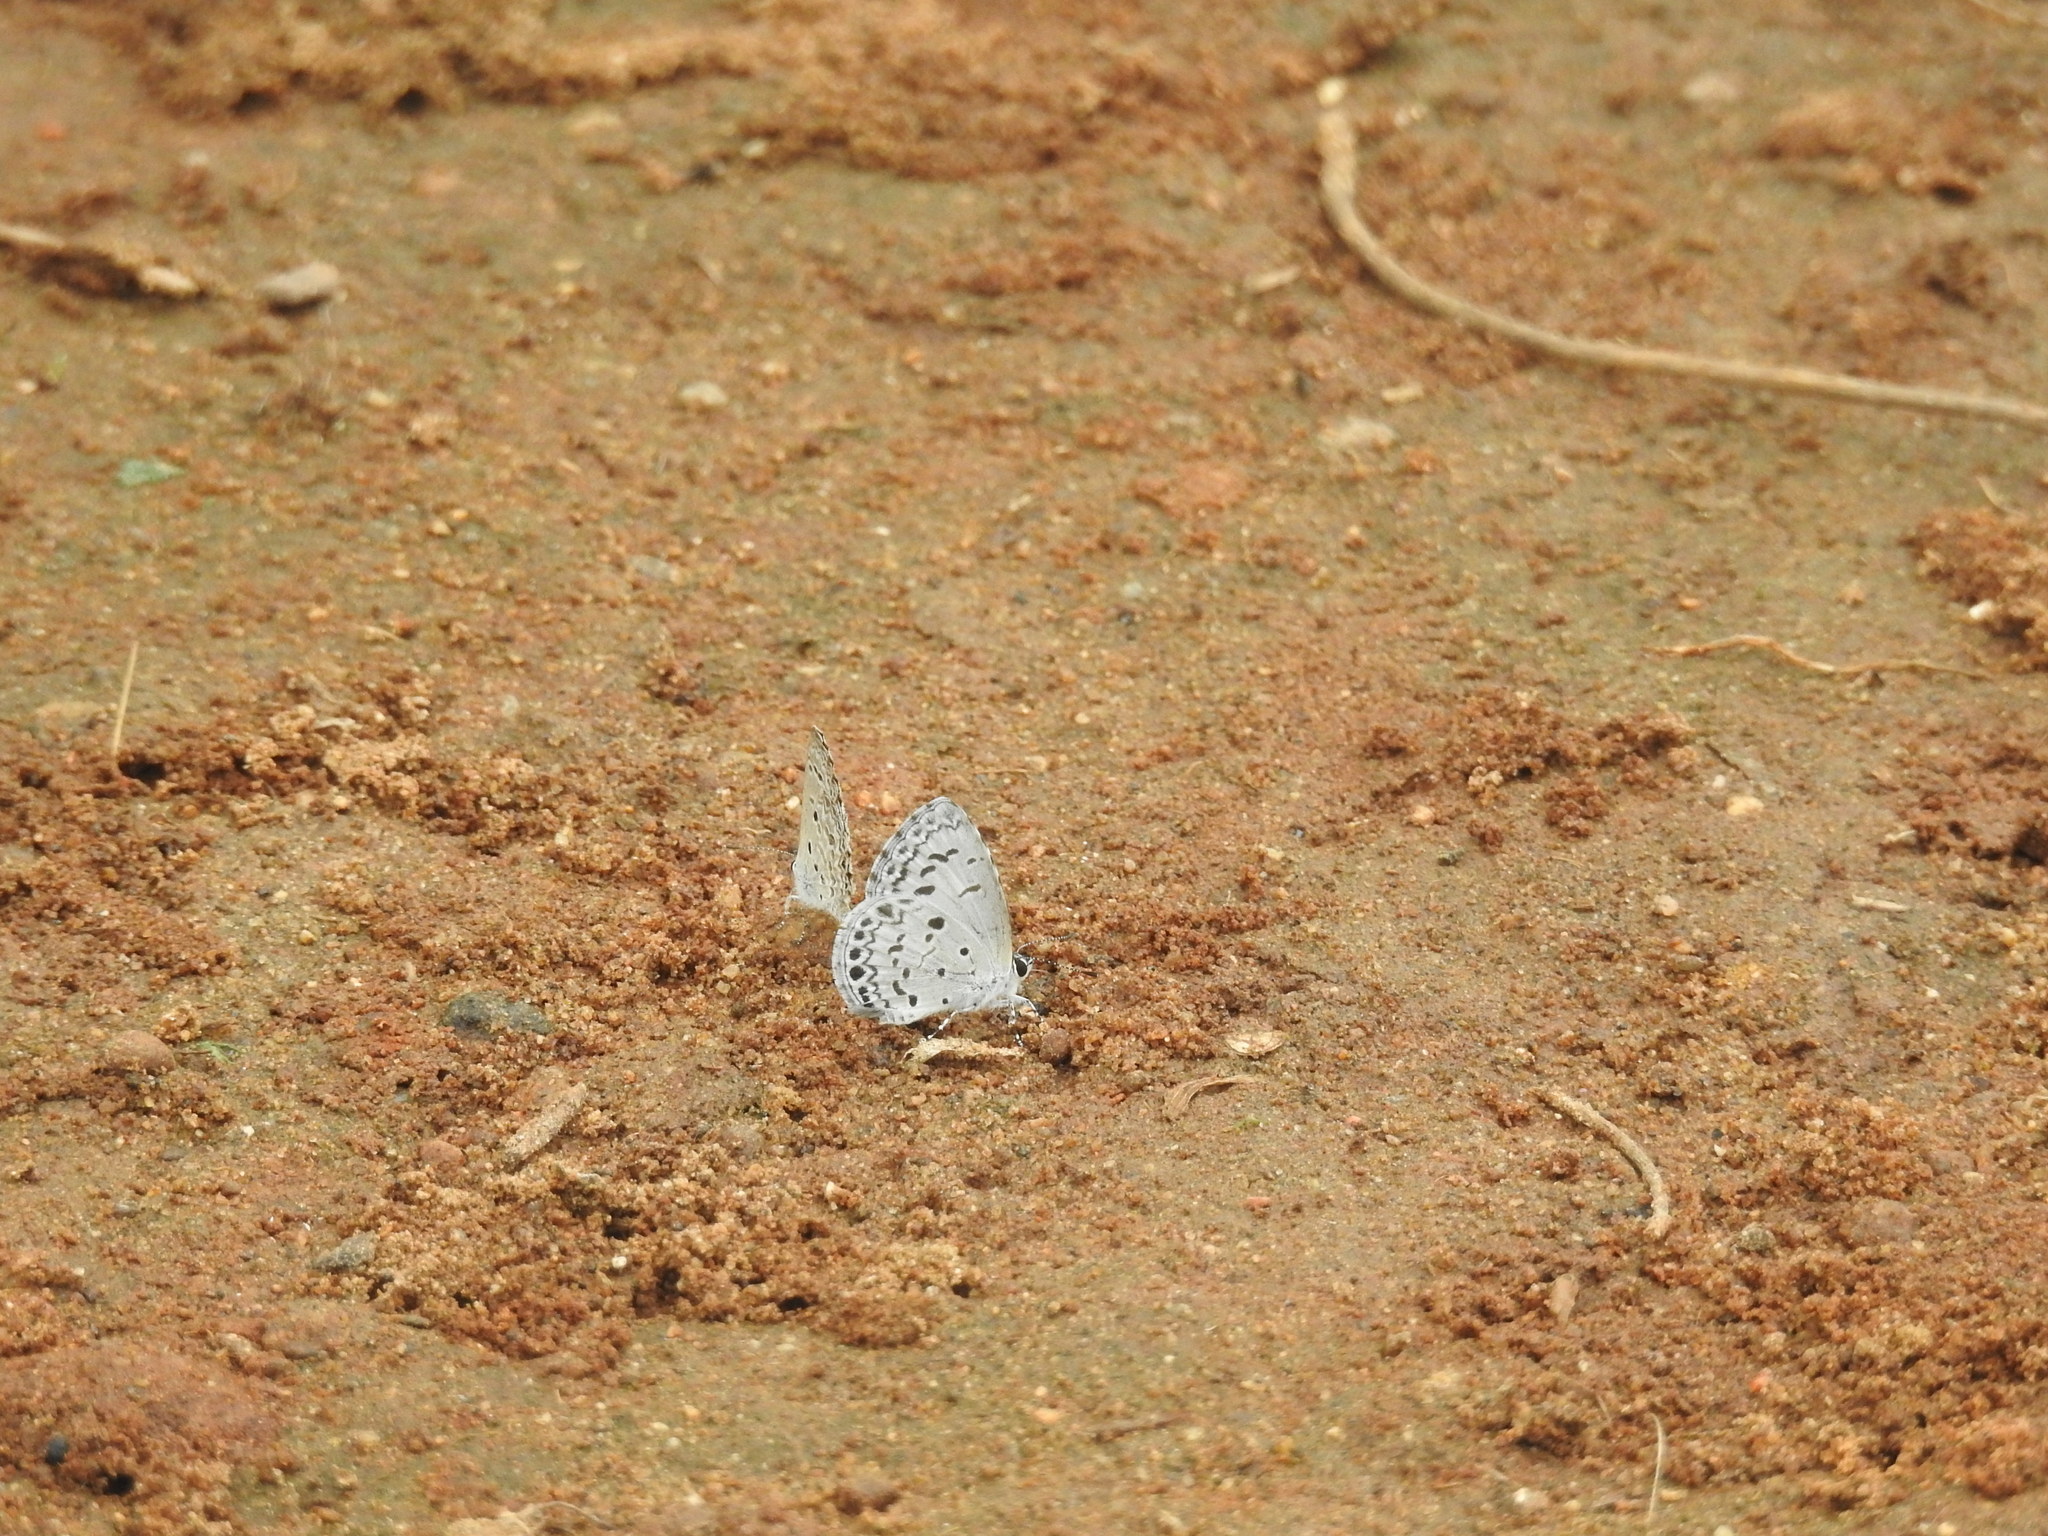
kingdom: Animalia
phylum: Arthropoda
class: Insecta
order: Lepidoptera
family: Lycaenidae
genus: Acytolepis
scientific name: Acytolepis puspa
